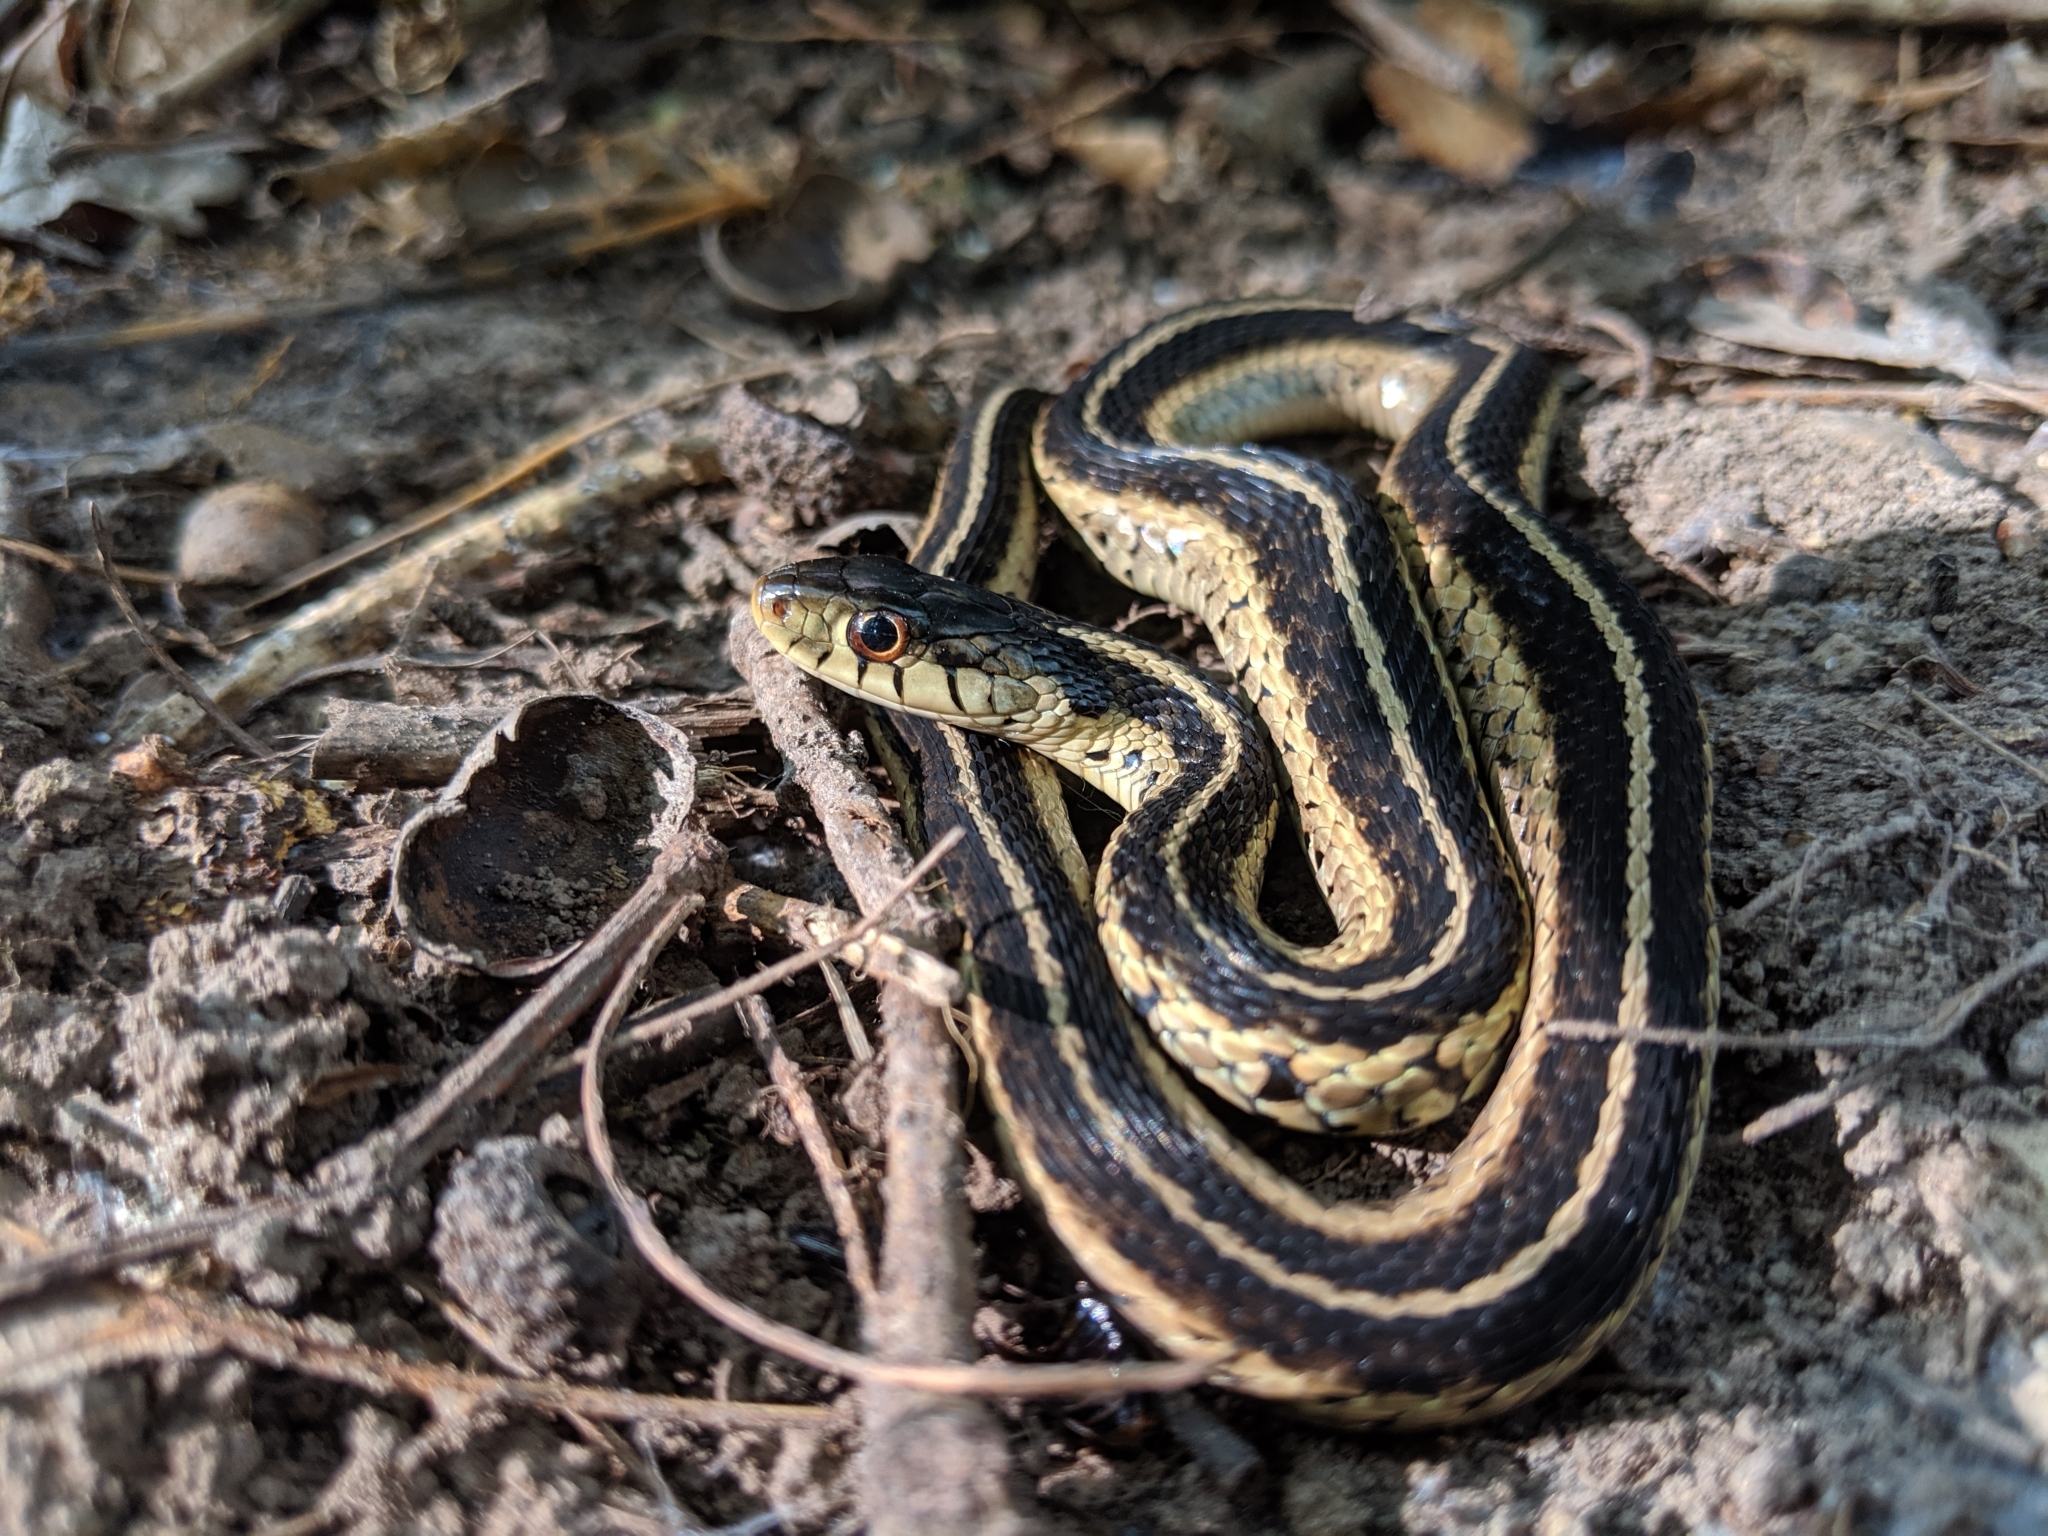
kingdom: Animalia
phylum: Chordata
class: Squamata
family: Colubridae
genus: Thamnophis
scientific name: Thamnophis sirtalis
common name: Common garter snake
